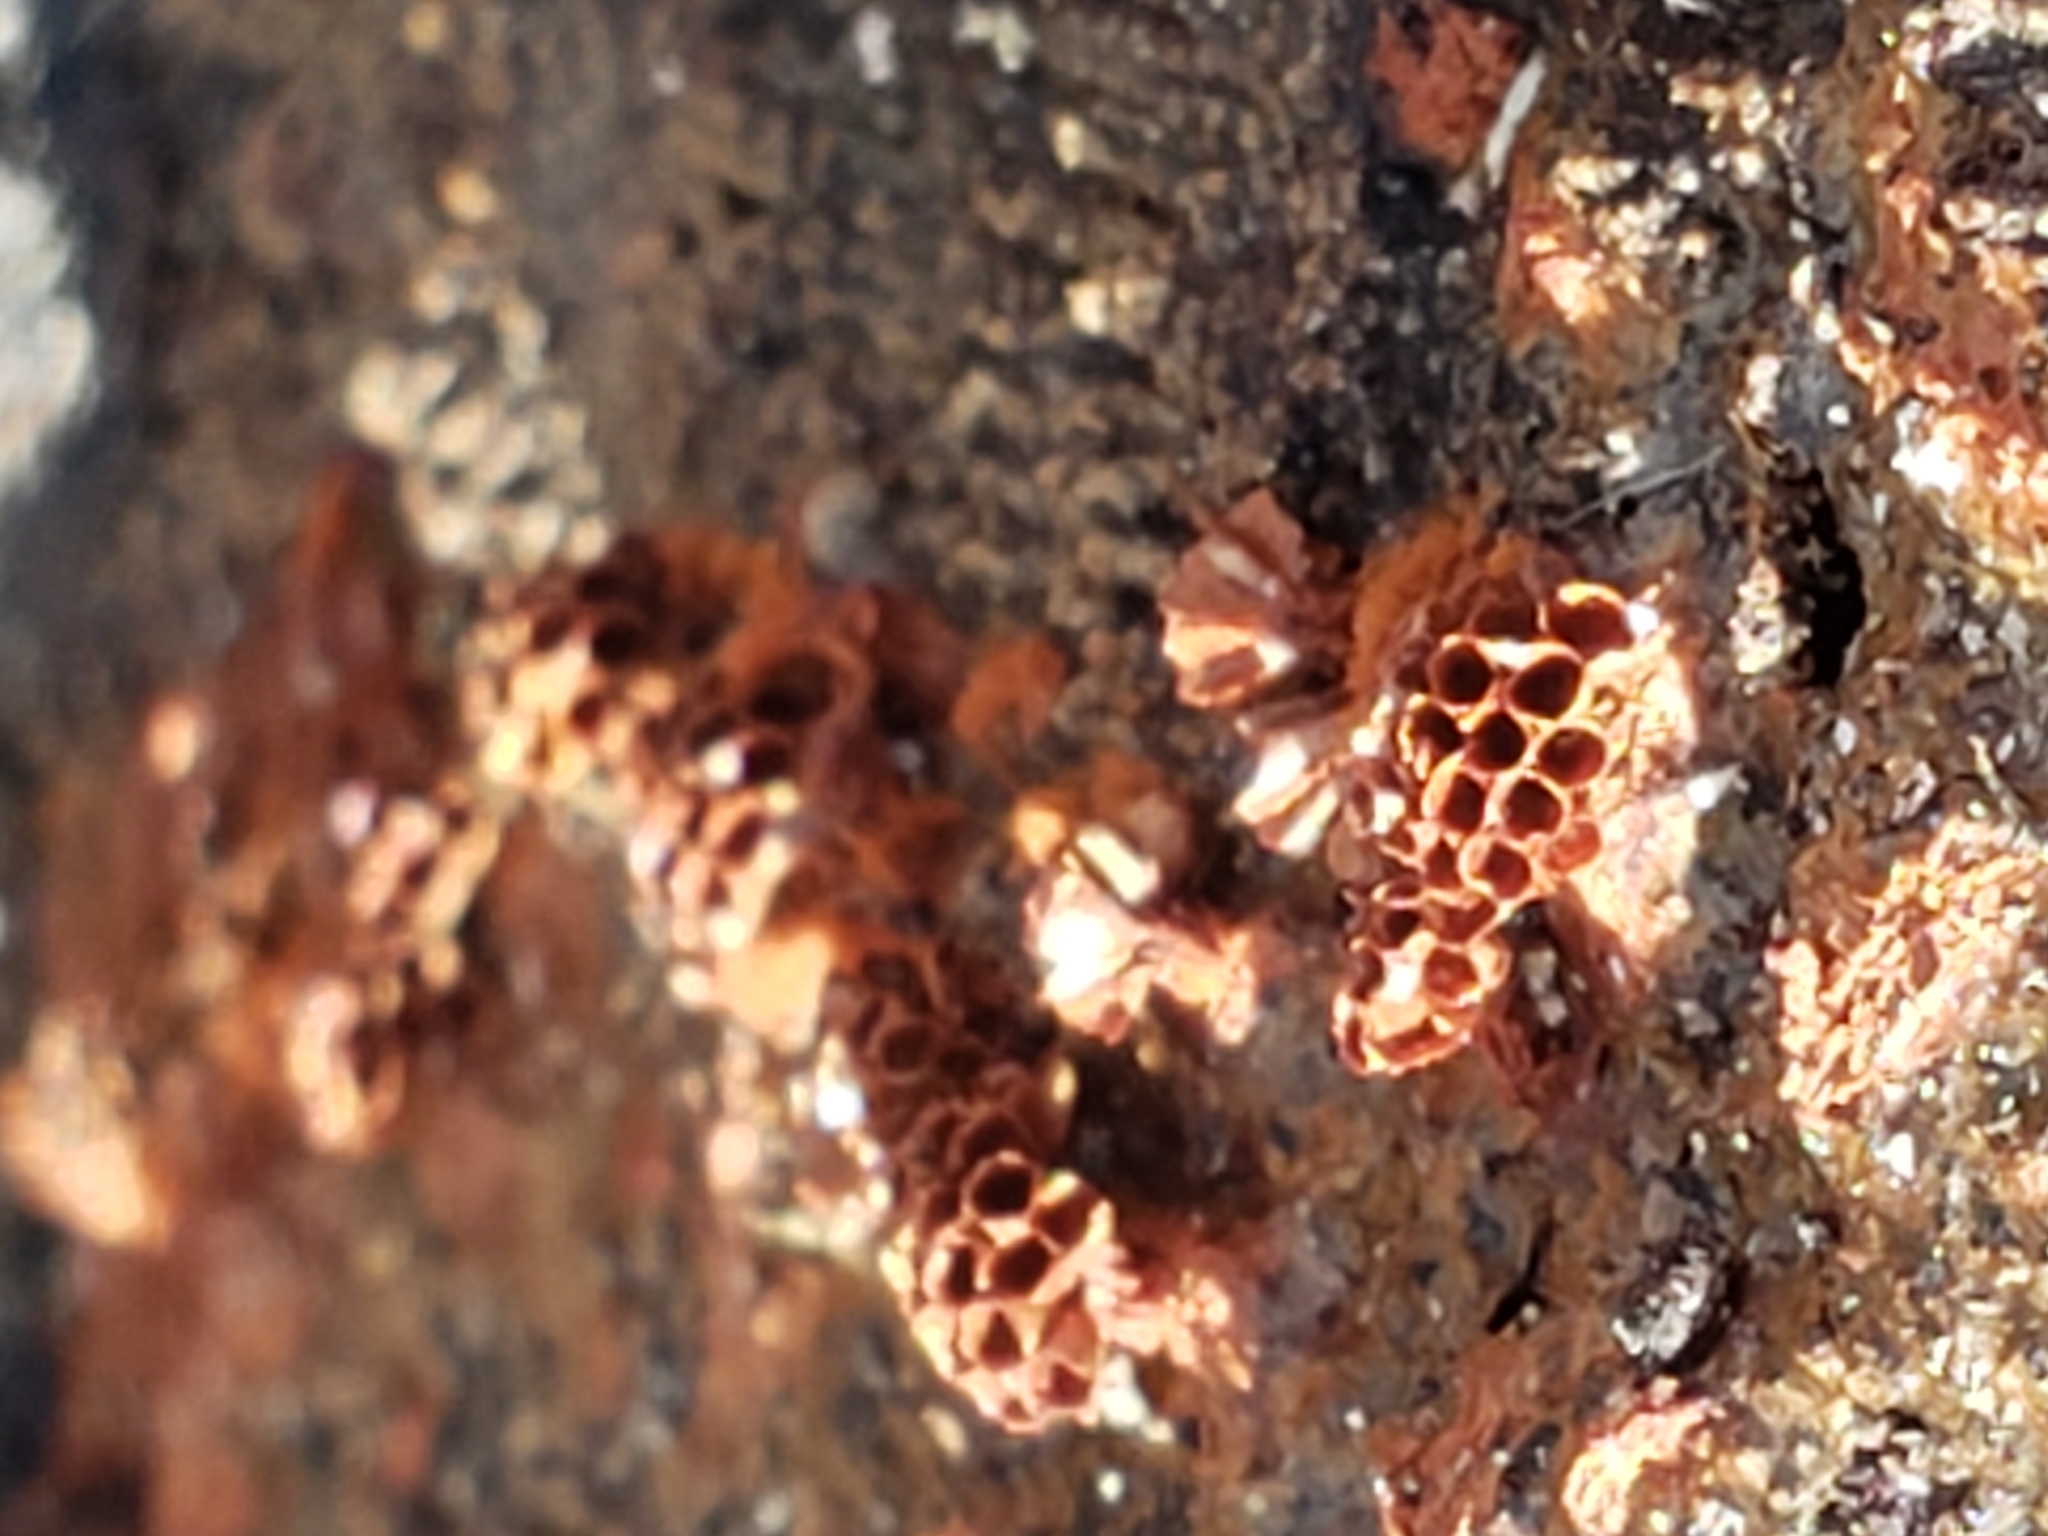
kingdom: Protozoa
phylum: Mycetozoa
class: Myxomycetes
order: Trichiales
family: Trichiaceae
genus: Metatrichia
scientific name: Metatrichia vesparia
